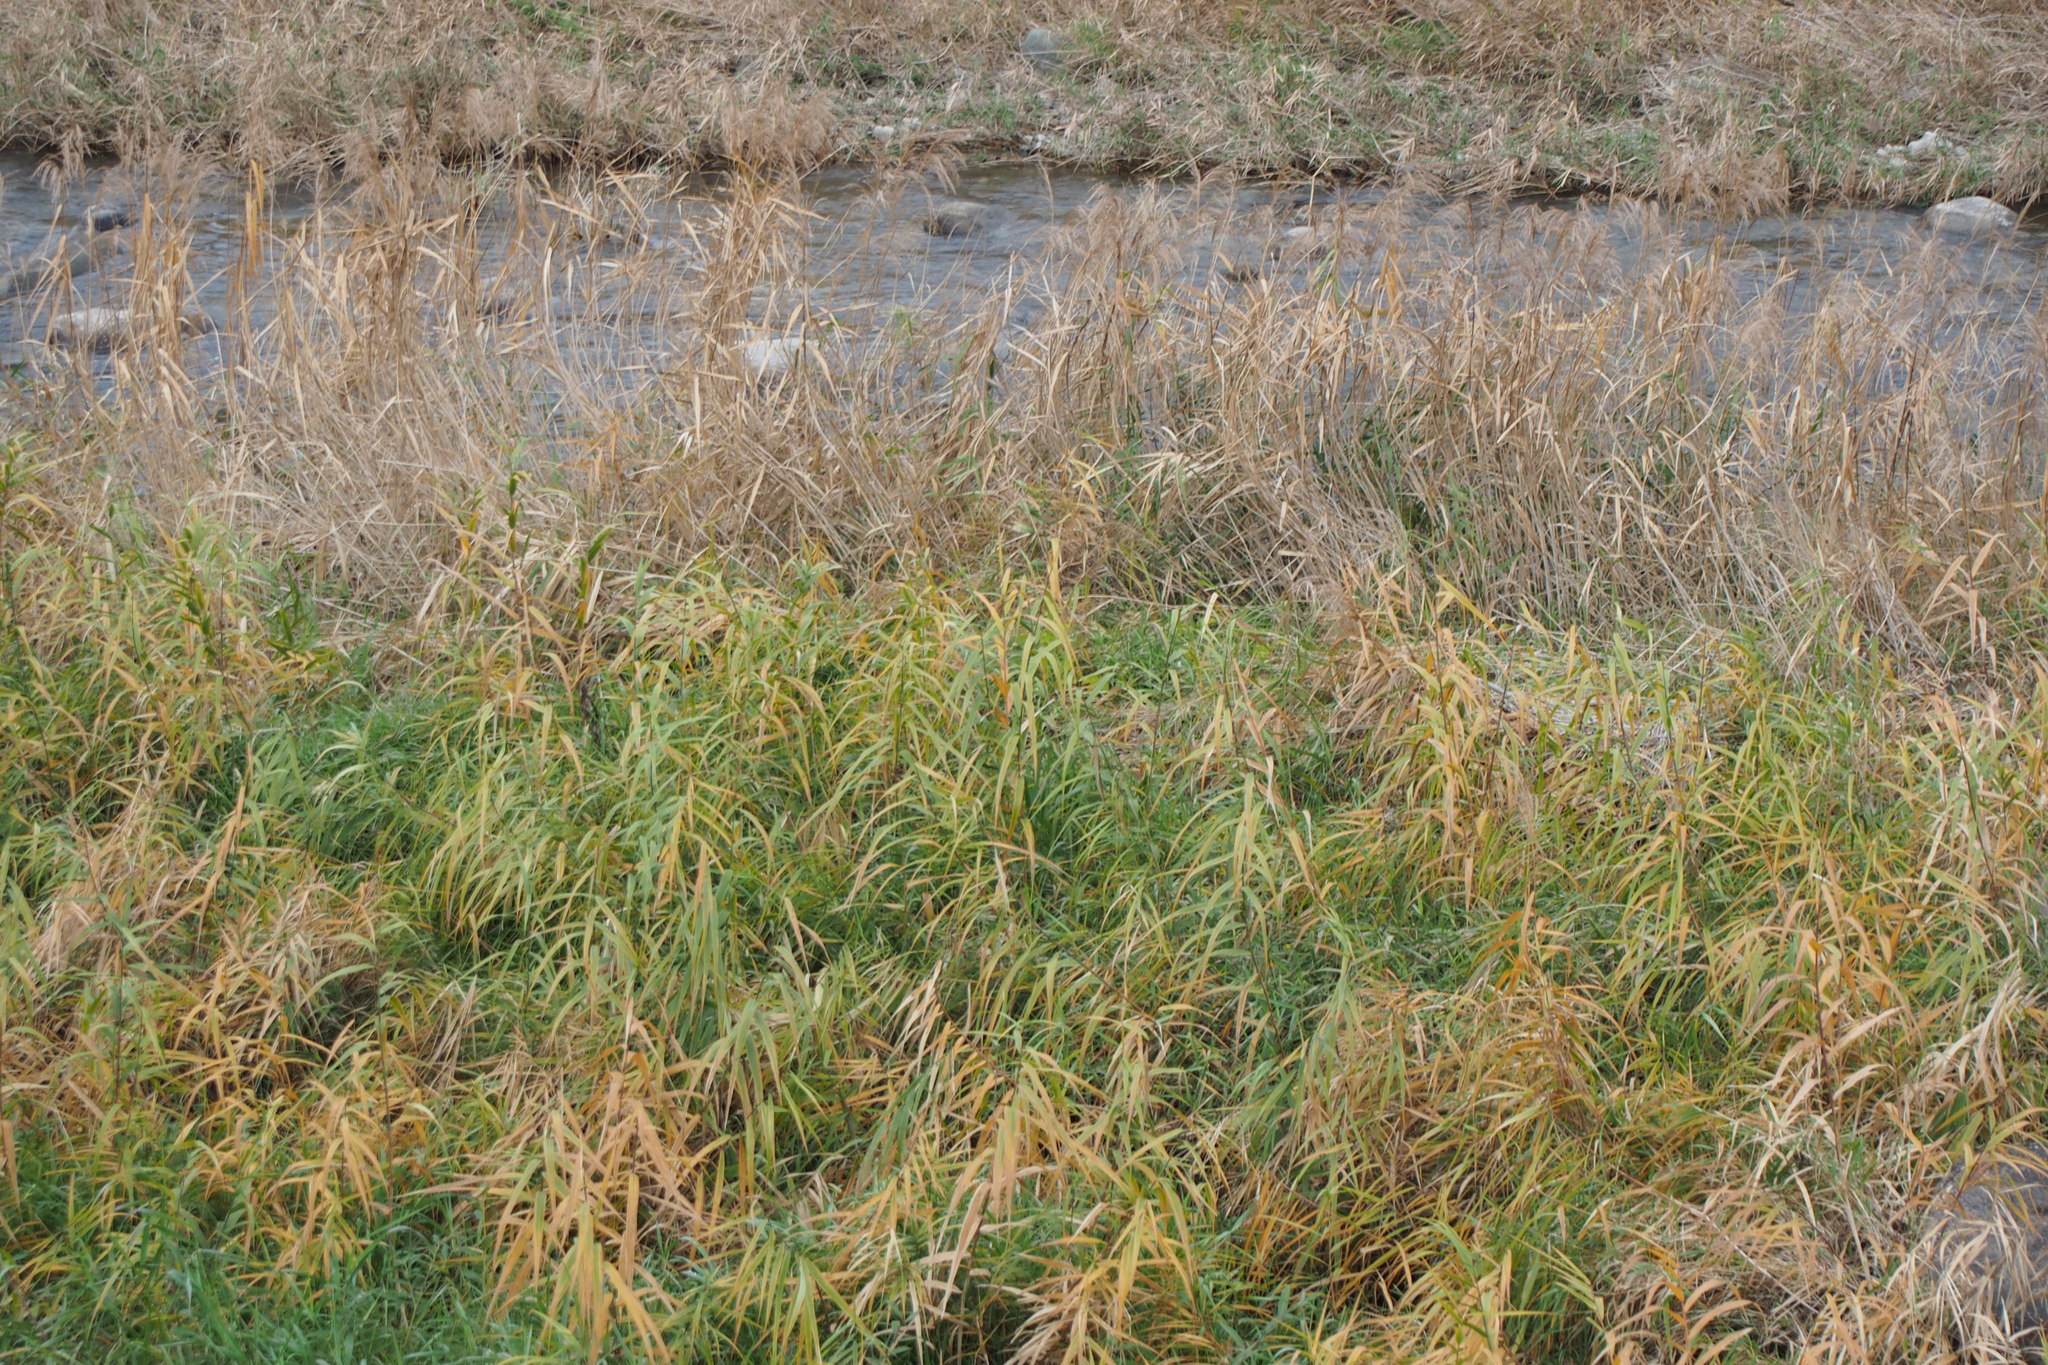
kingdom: Plantae
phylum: Tracheophyta
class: Liliopsida
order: Poales
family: Poaceae
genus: Phragmites
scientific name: Phragmites australis
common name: Common reed
